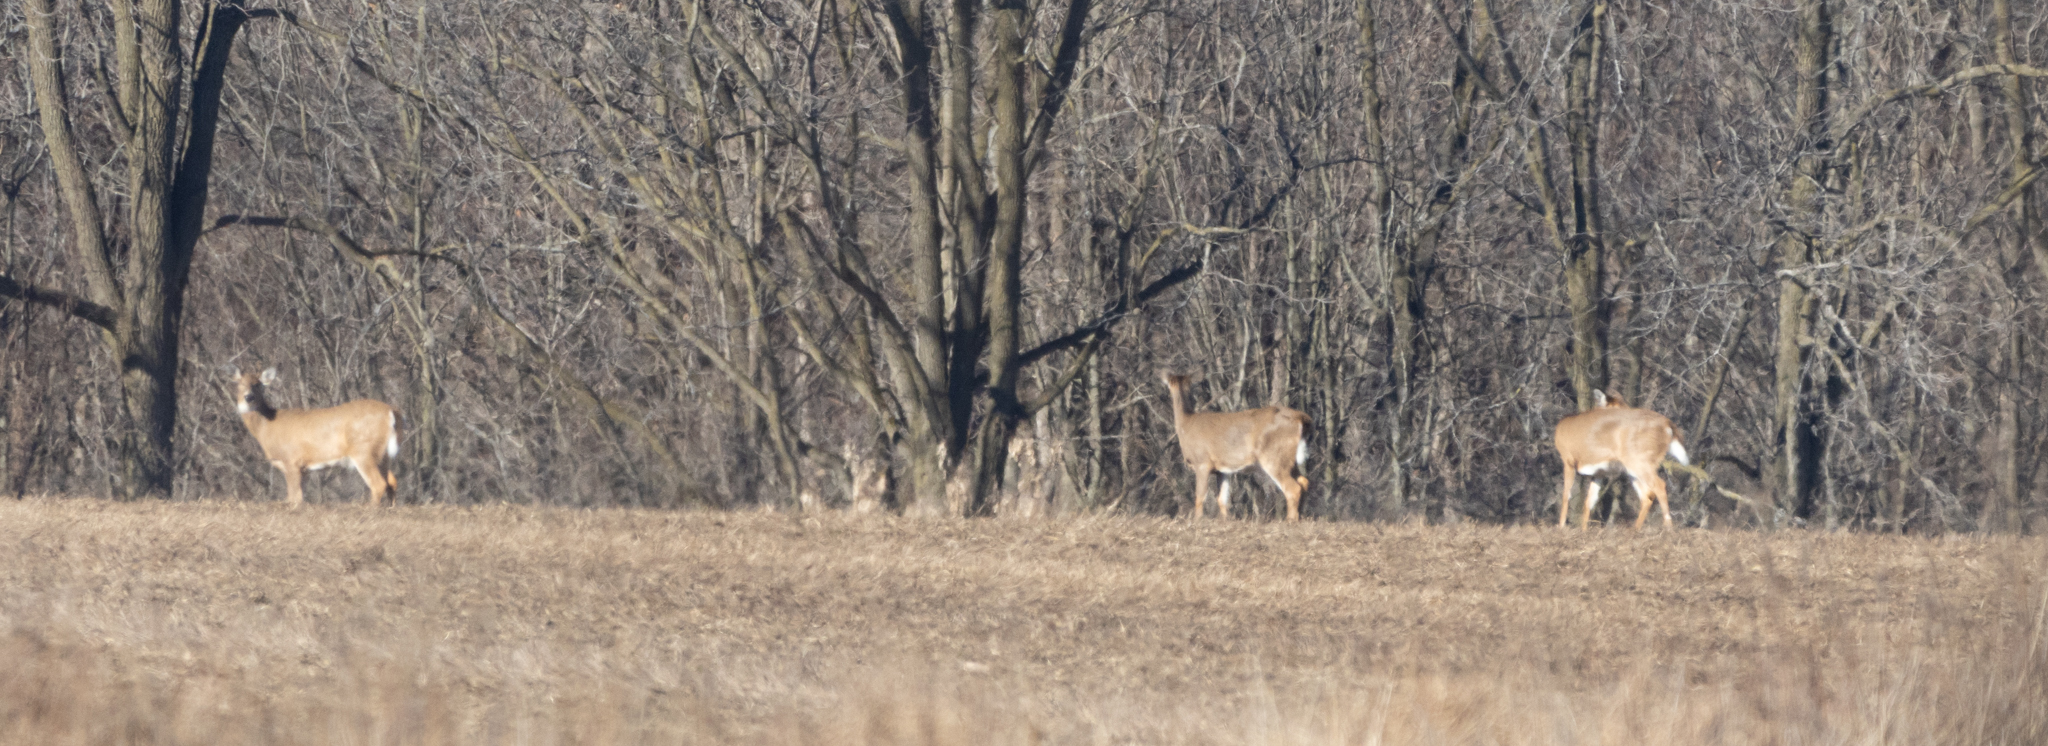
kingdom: Animalia
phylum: Chordata
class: Mammalia
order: Artiodactyla
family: Cervidae
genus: Odocoileus
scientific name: Odocoileus virginianus
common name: White-tailed deer
